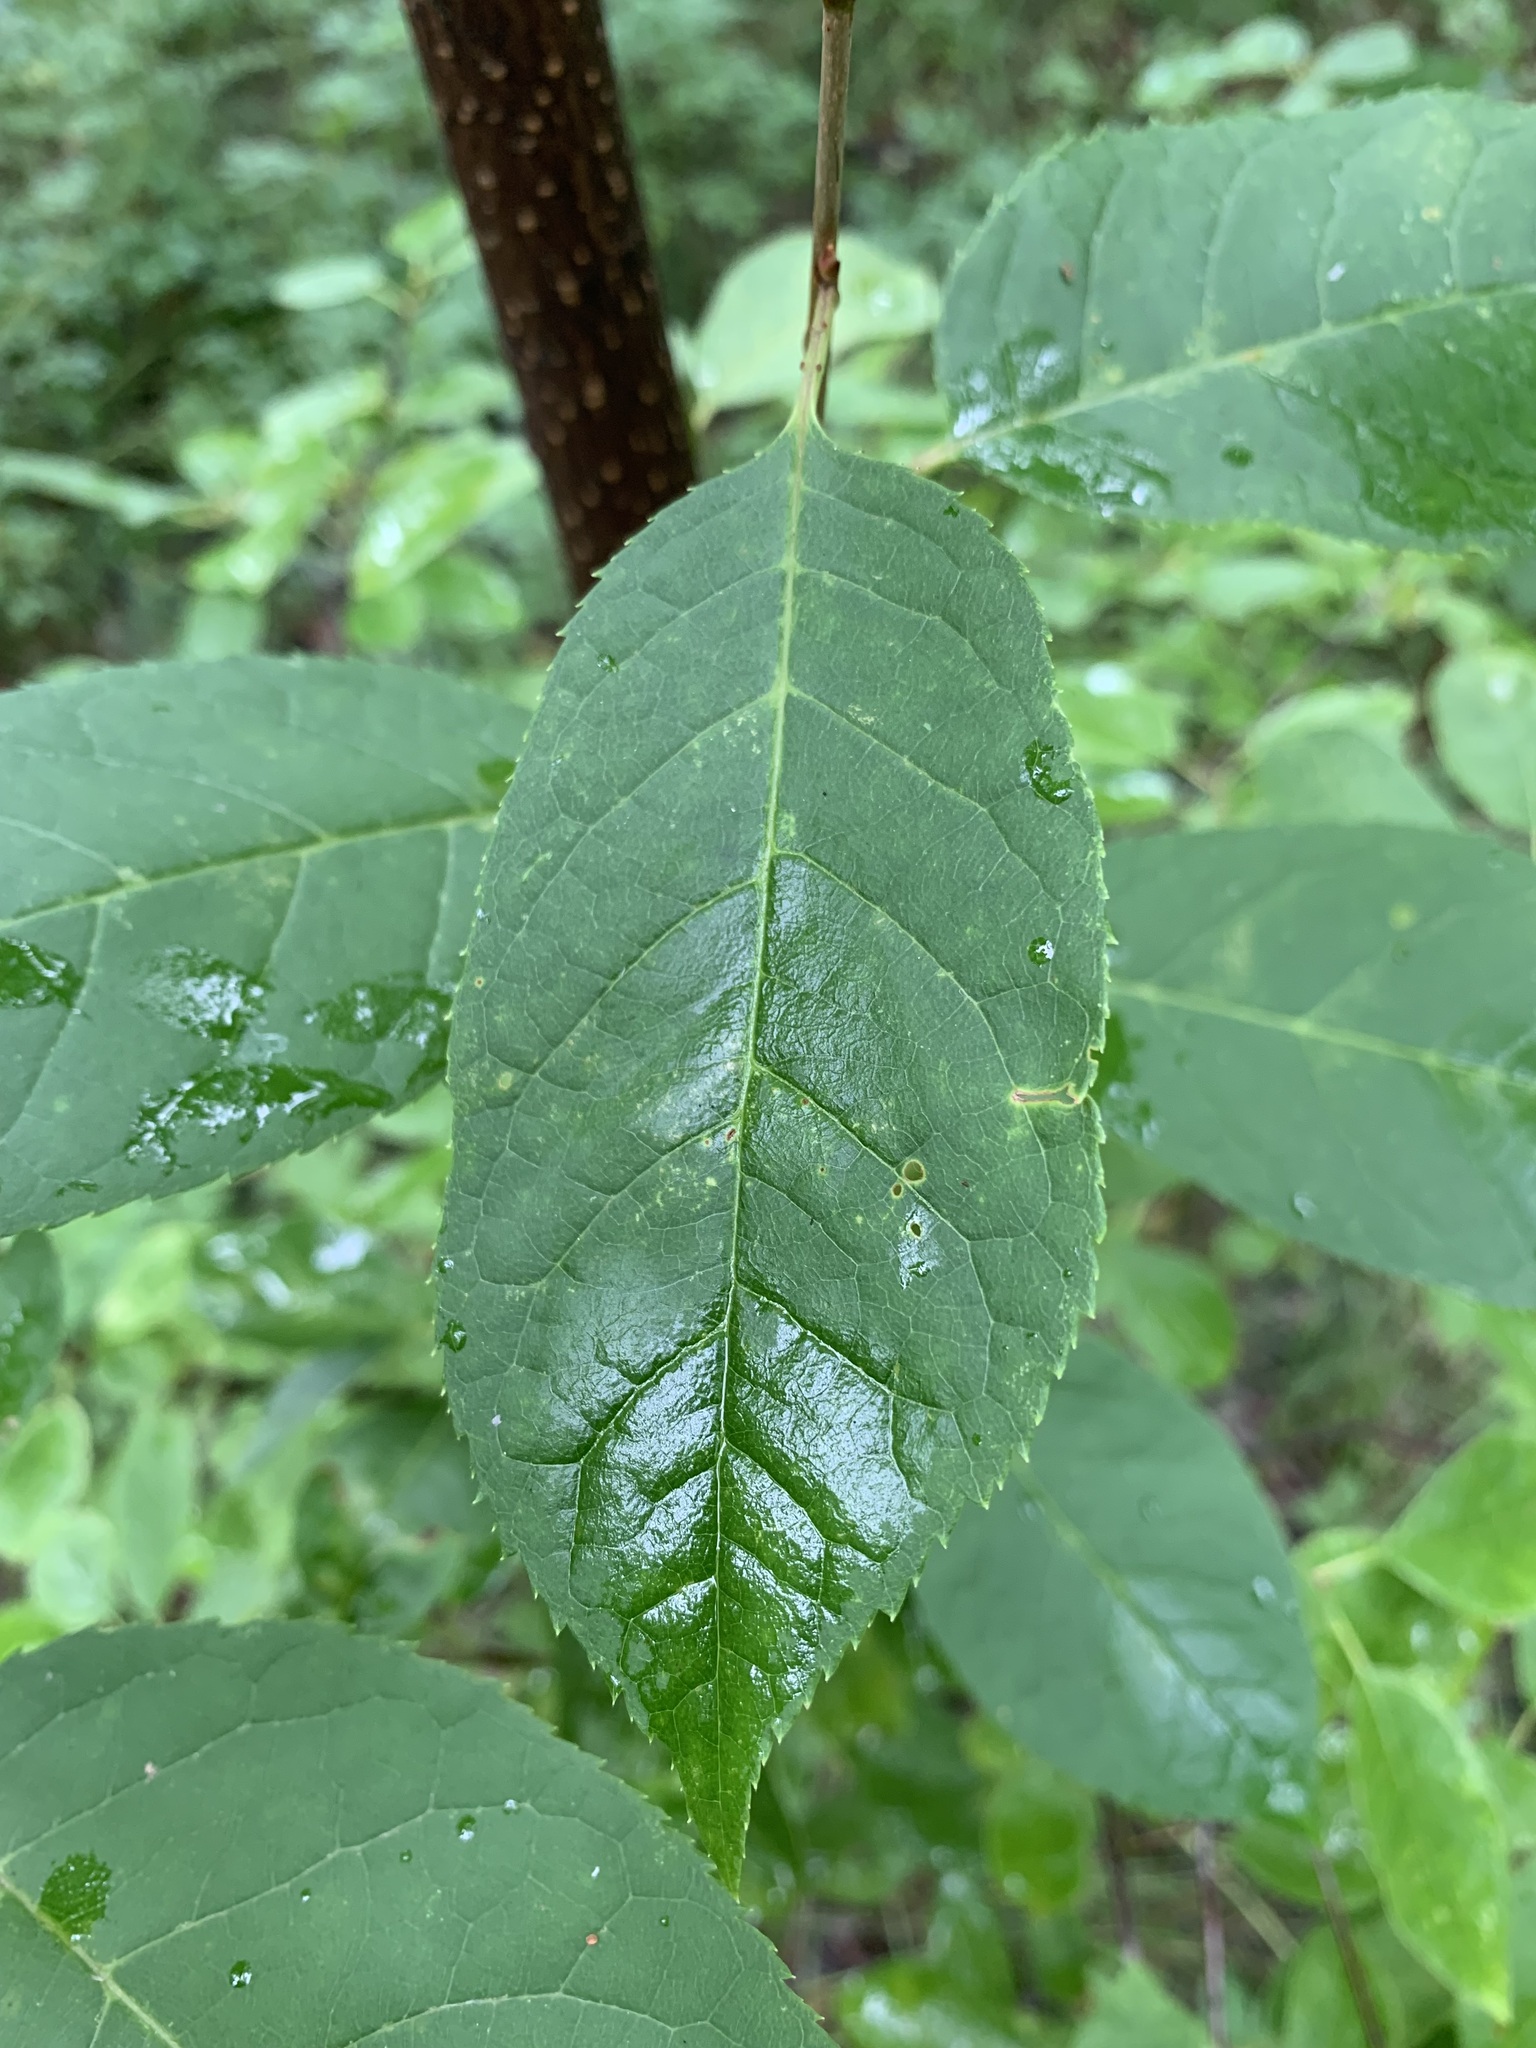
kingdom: Plantae
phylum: Tracheophyta
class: Magnoliopsida
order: Rosales
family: Rosaceae
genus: Prunus
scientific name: Prunus virginiana
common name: Chokecherry
